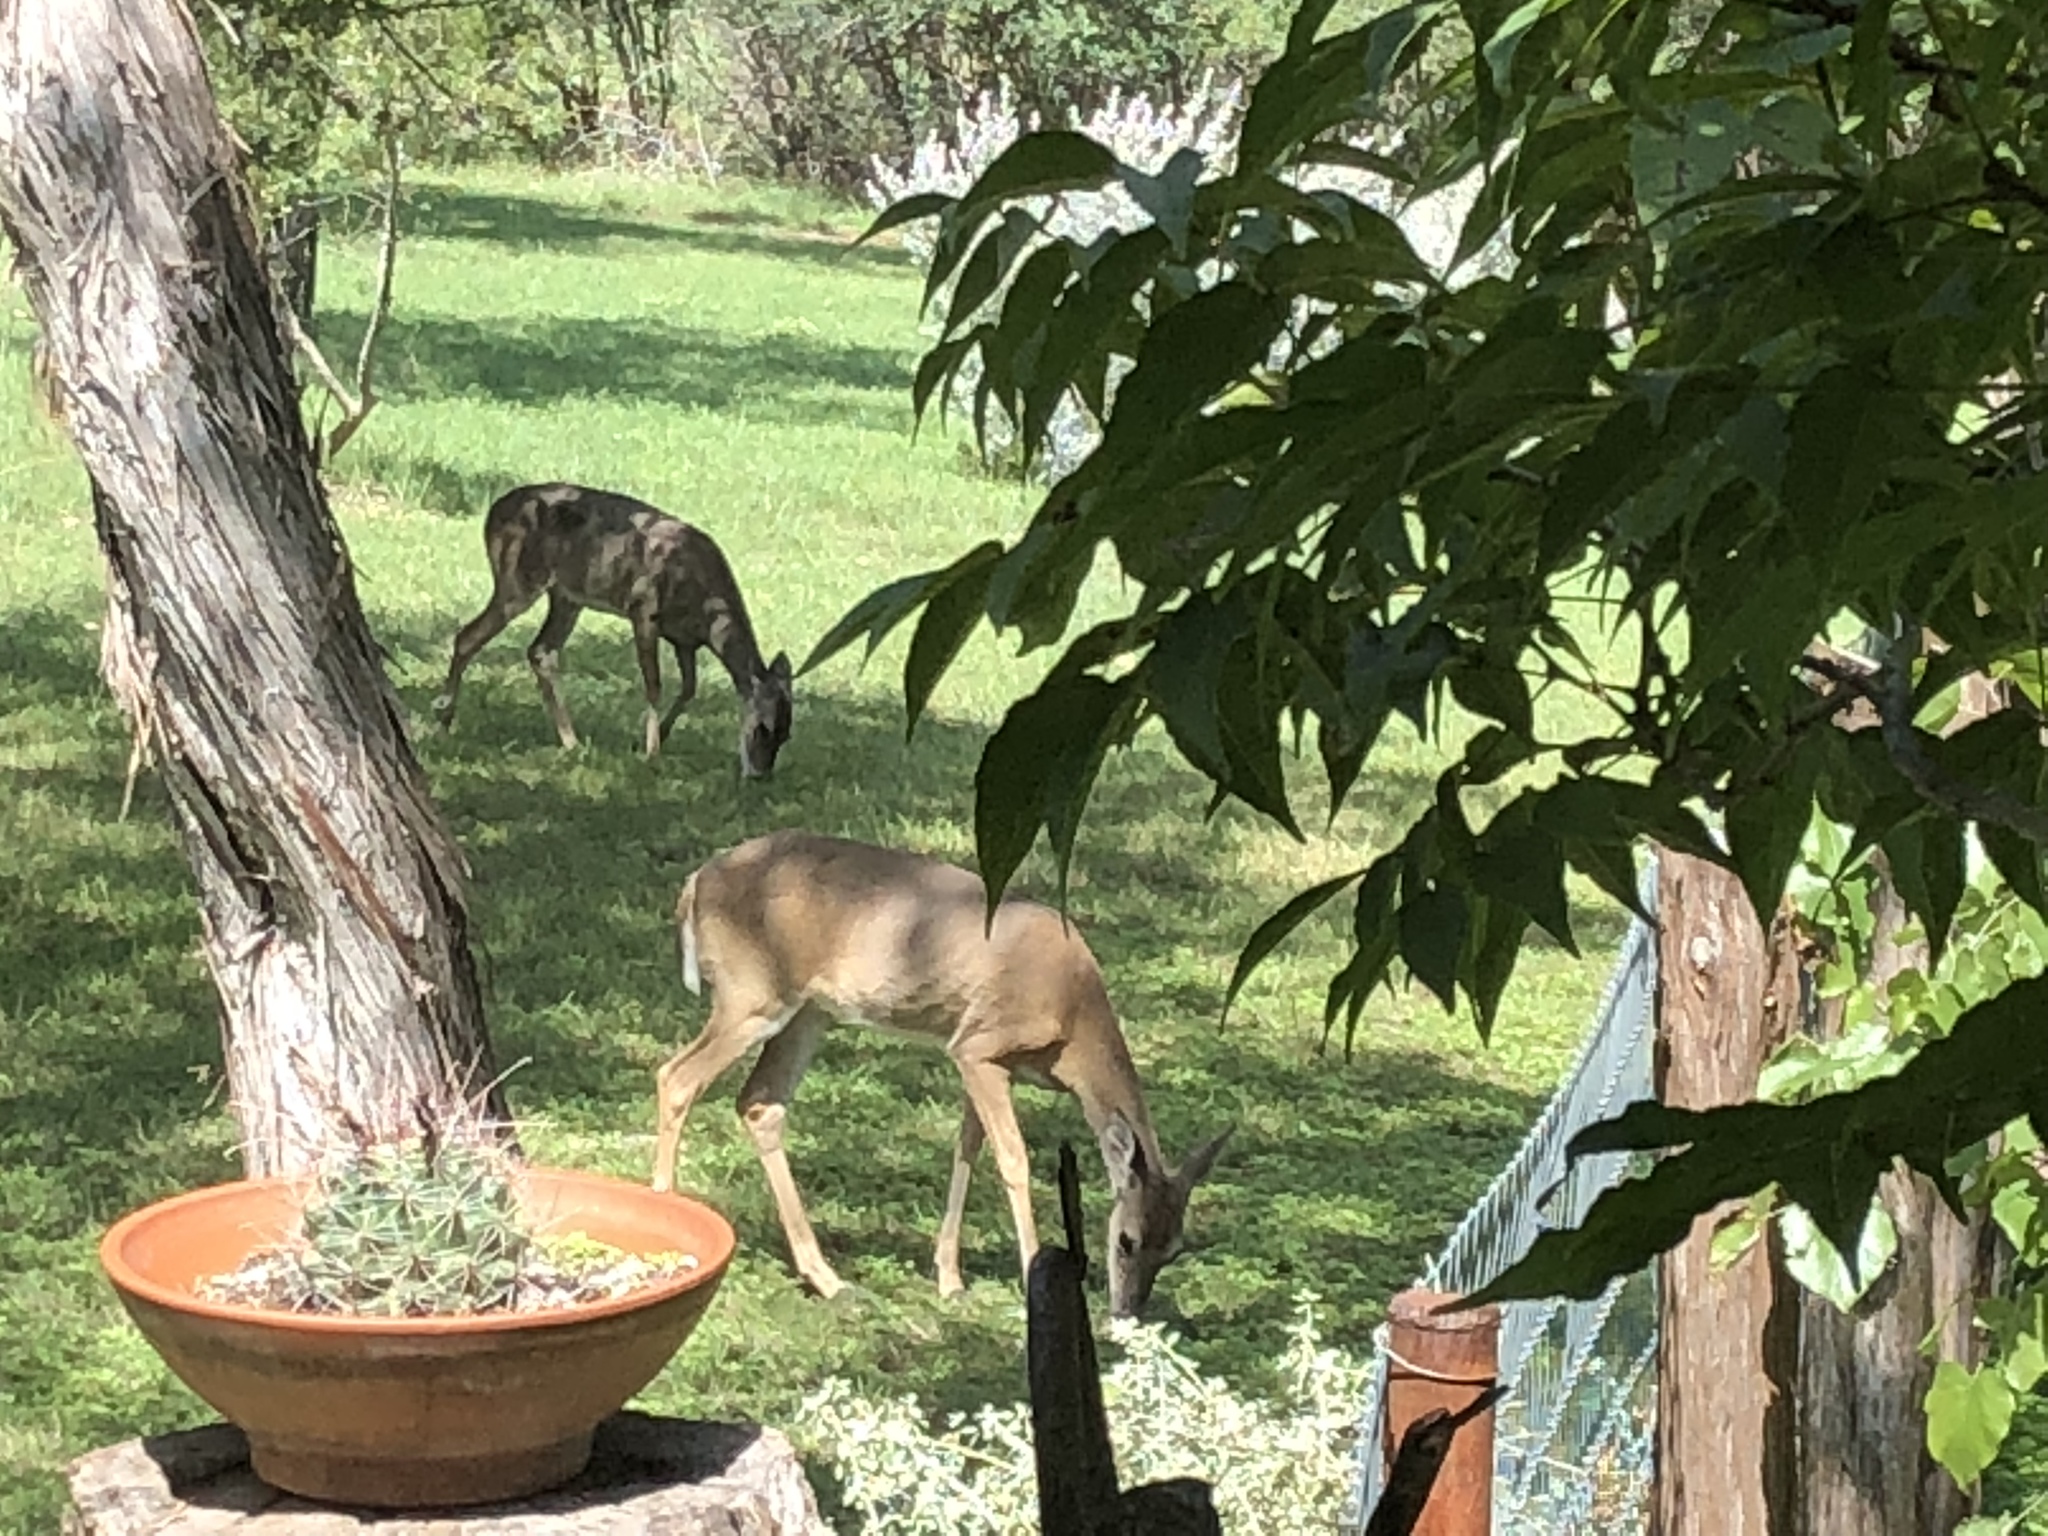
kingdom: Animalia
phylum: Chordata
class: Mammalia
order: Artiodactyla
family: Cervidae
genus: Odocoileus
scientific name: Odocoileus virginianus
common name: White-tailed deer
